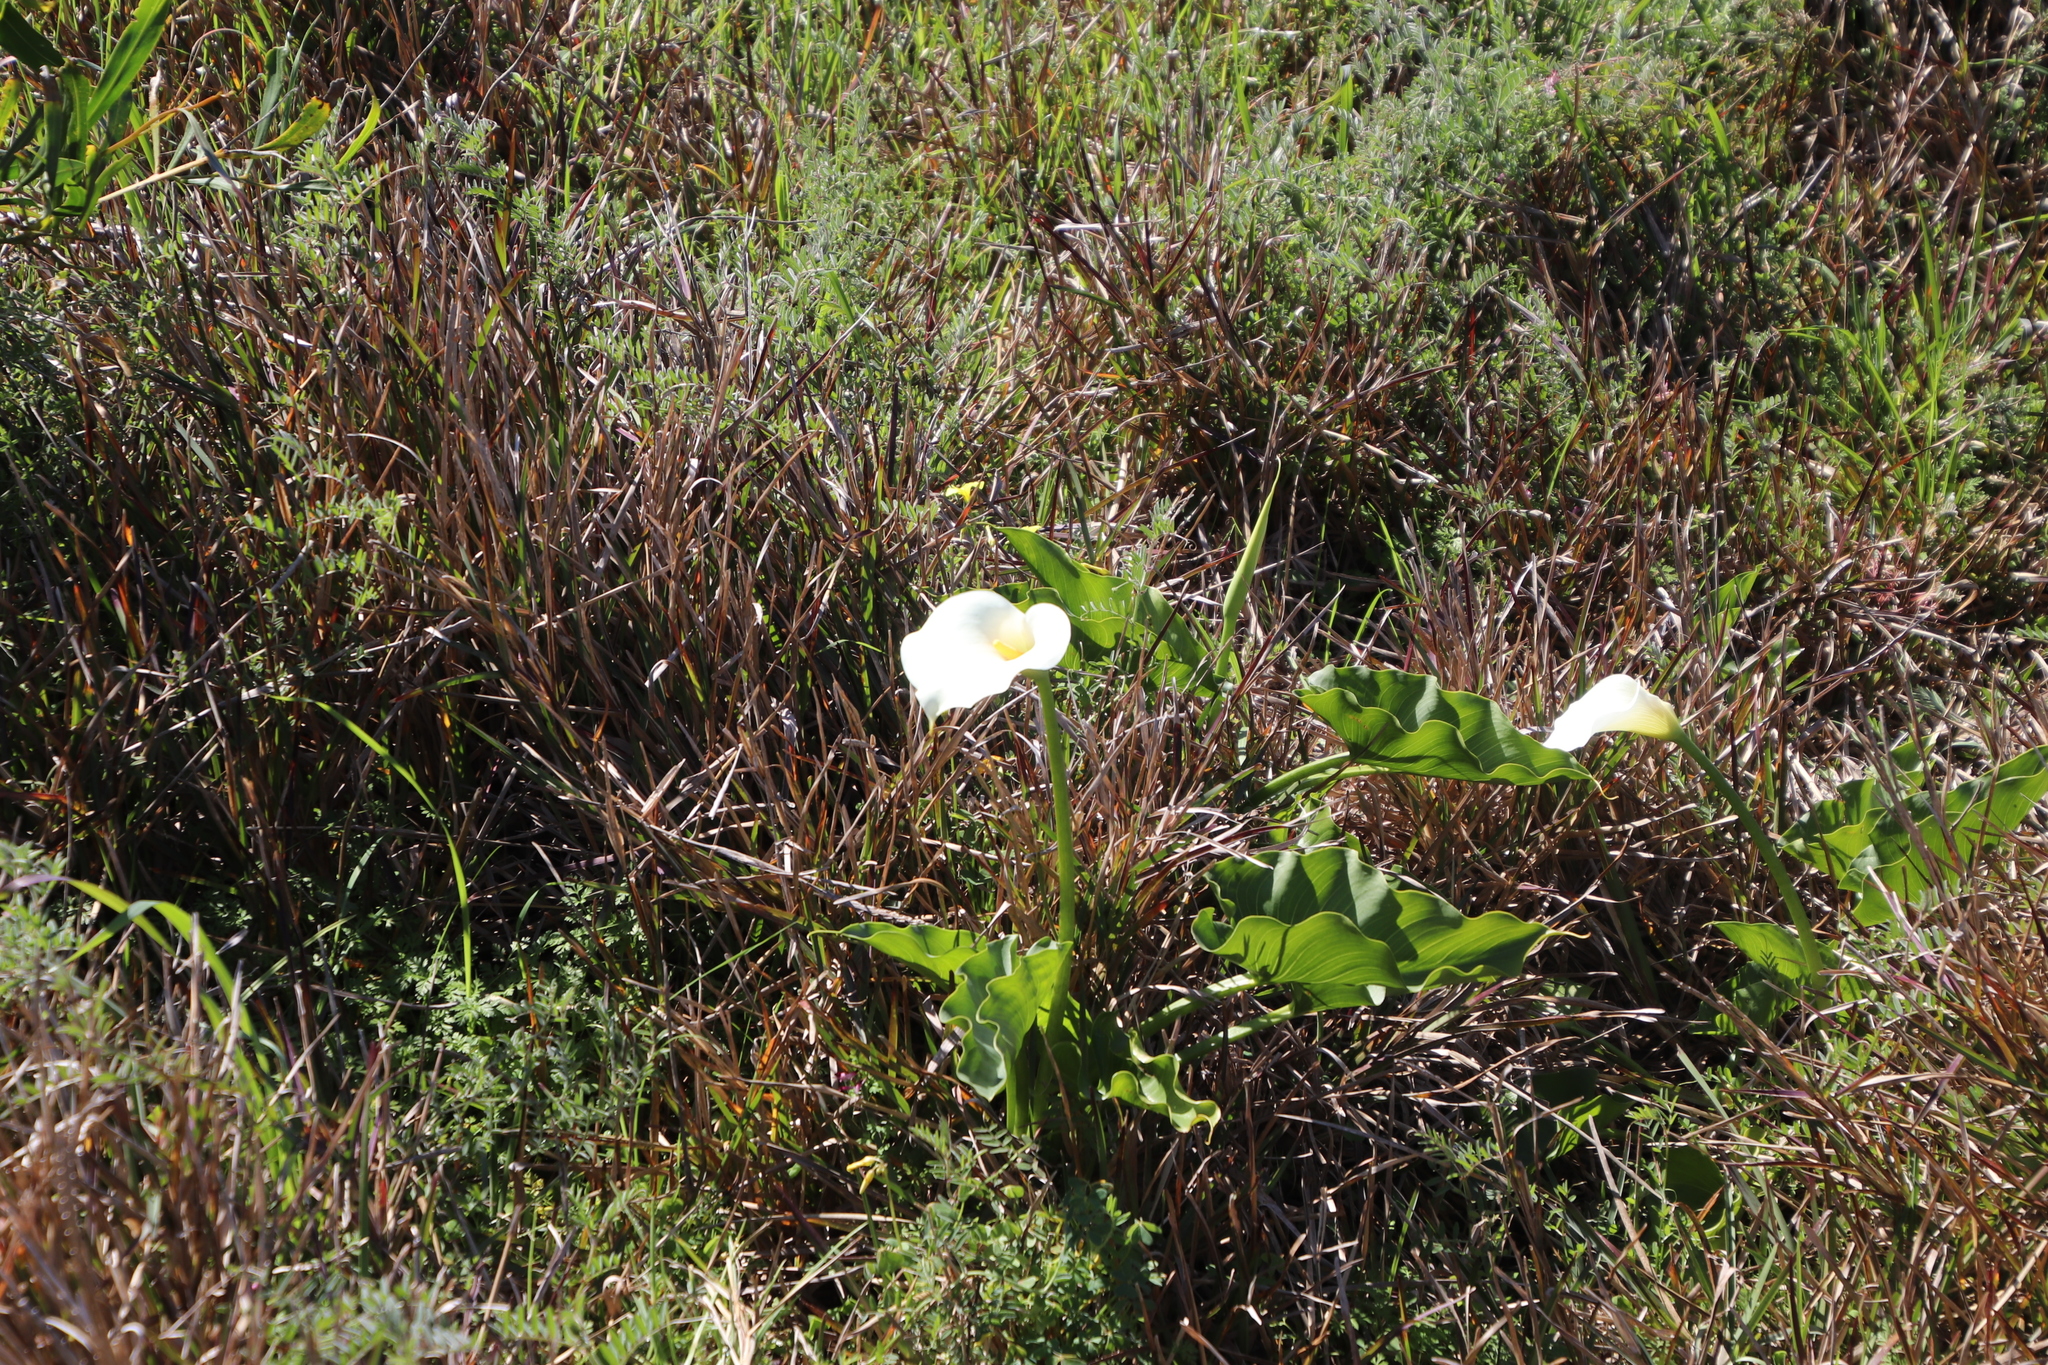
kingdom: Plantae
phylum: Tracheophyta
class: Liliopsida
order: Alismatales
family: Araceae
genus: Zantedeschia
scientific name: Zantedeschia aethiopica
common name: Altar-lily
